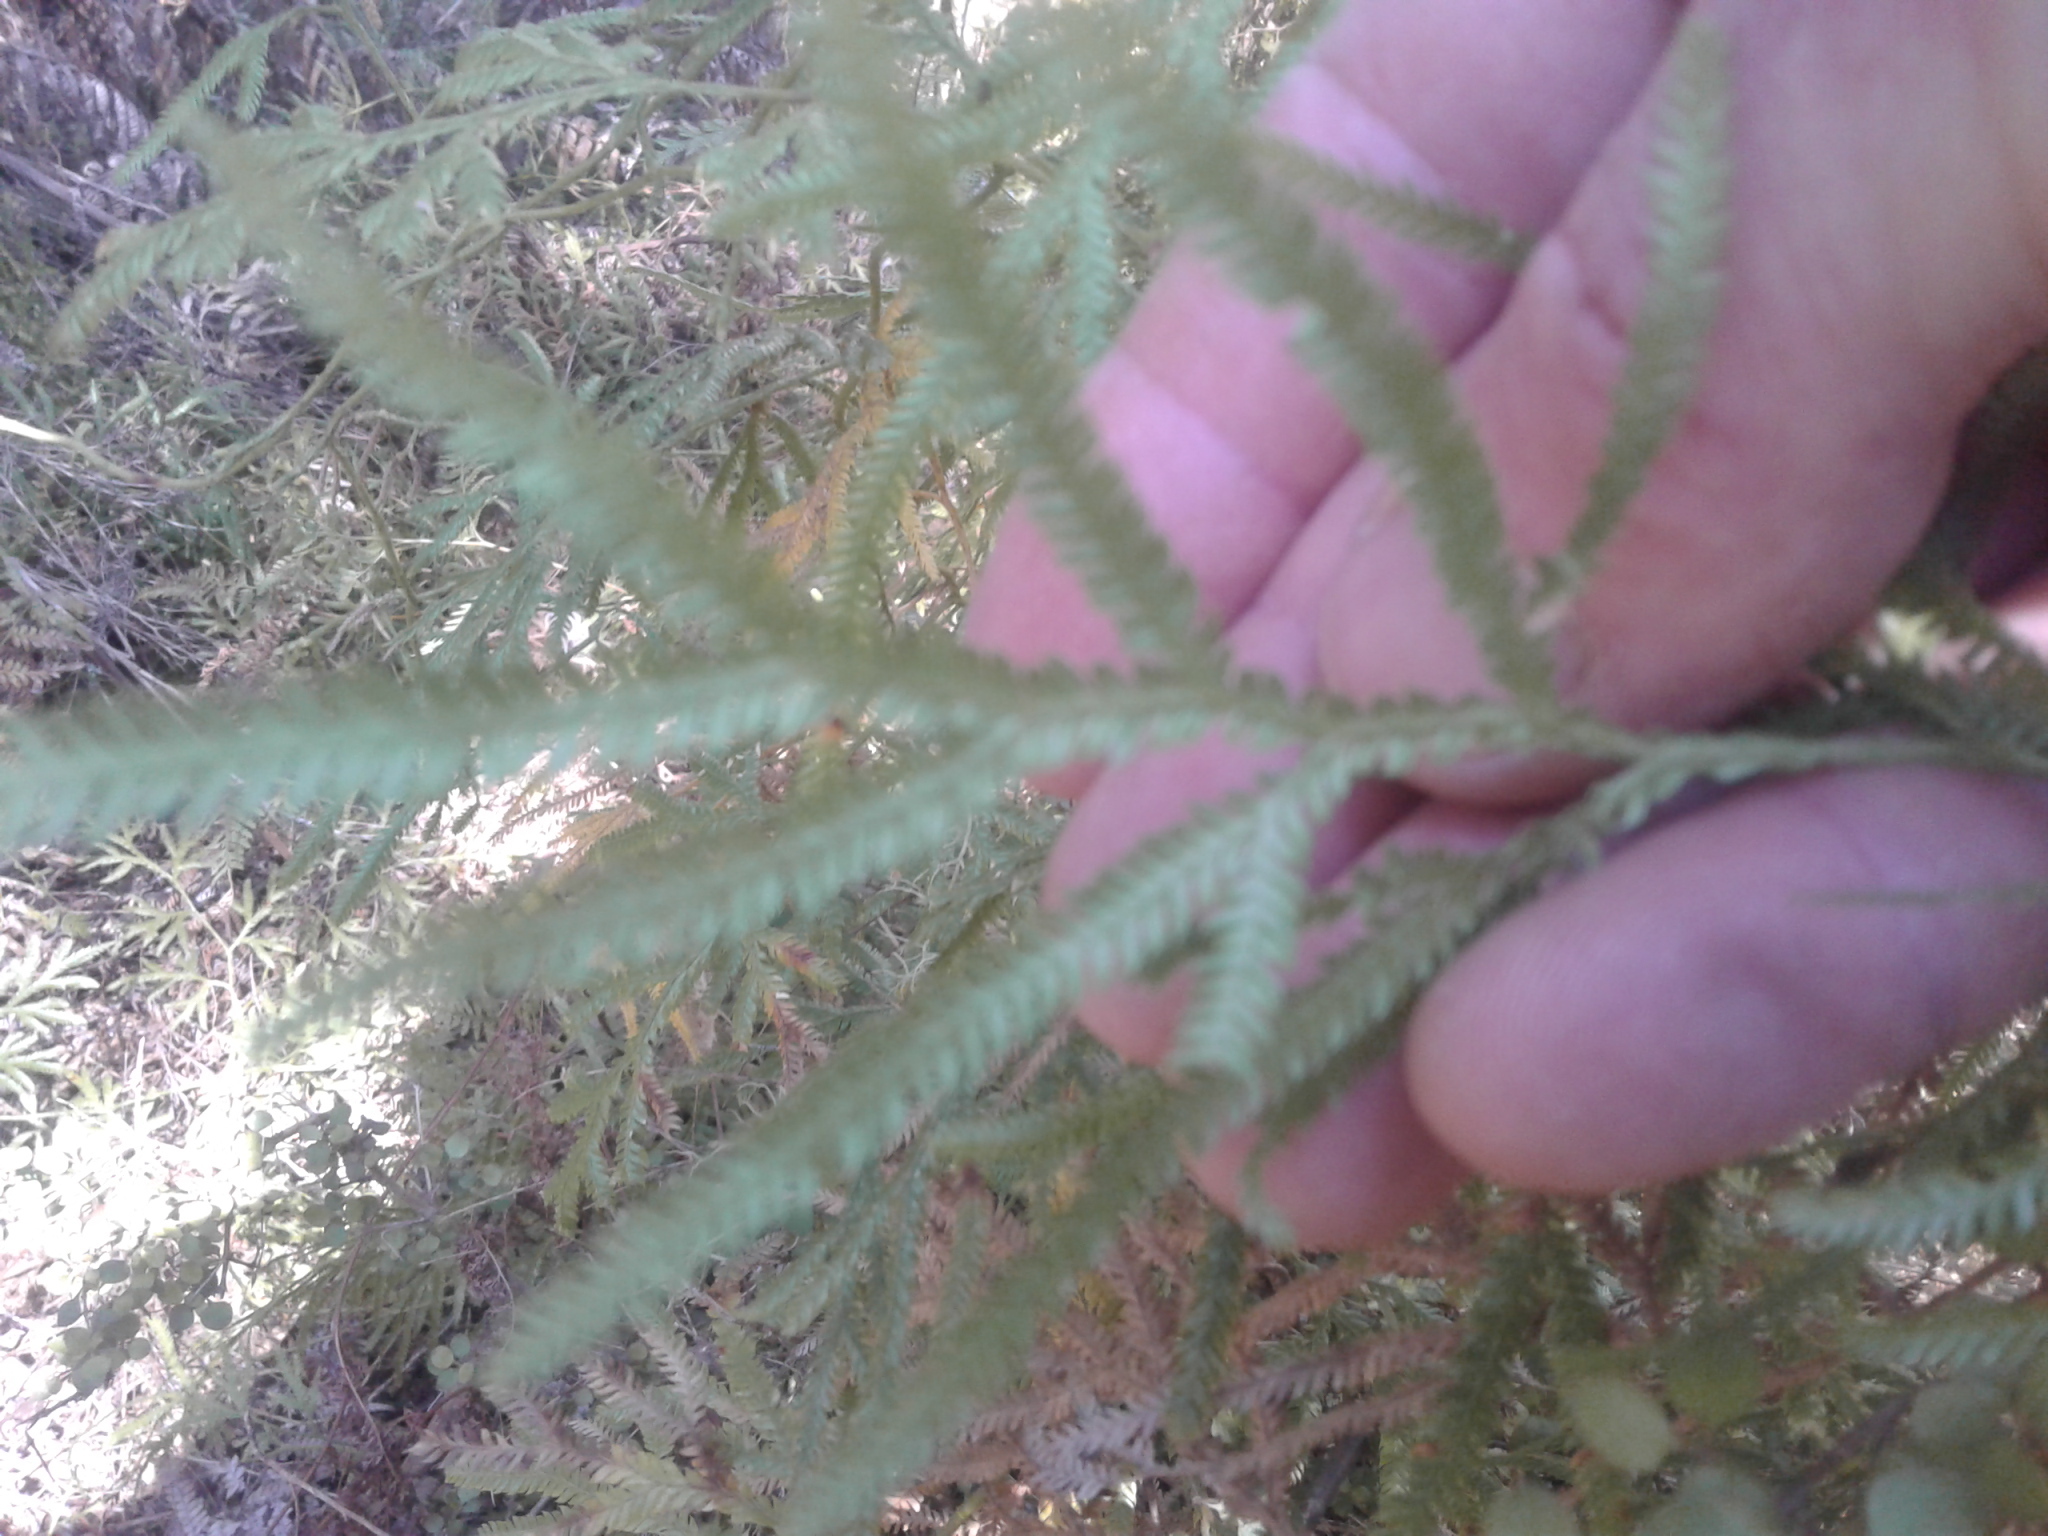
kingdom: Plantae
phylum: Tracheophyta
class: Lycopodiopsida
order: Lycopodiales
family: Lycopodiaceae
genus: Lycopodium
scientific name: Lycopodium volubile
